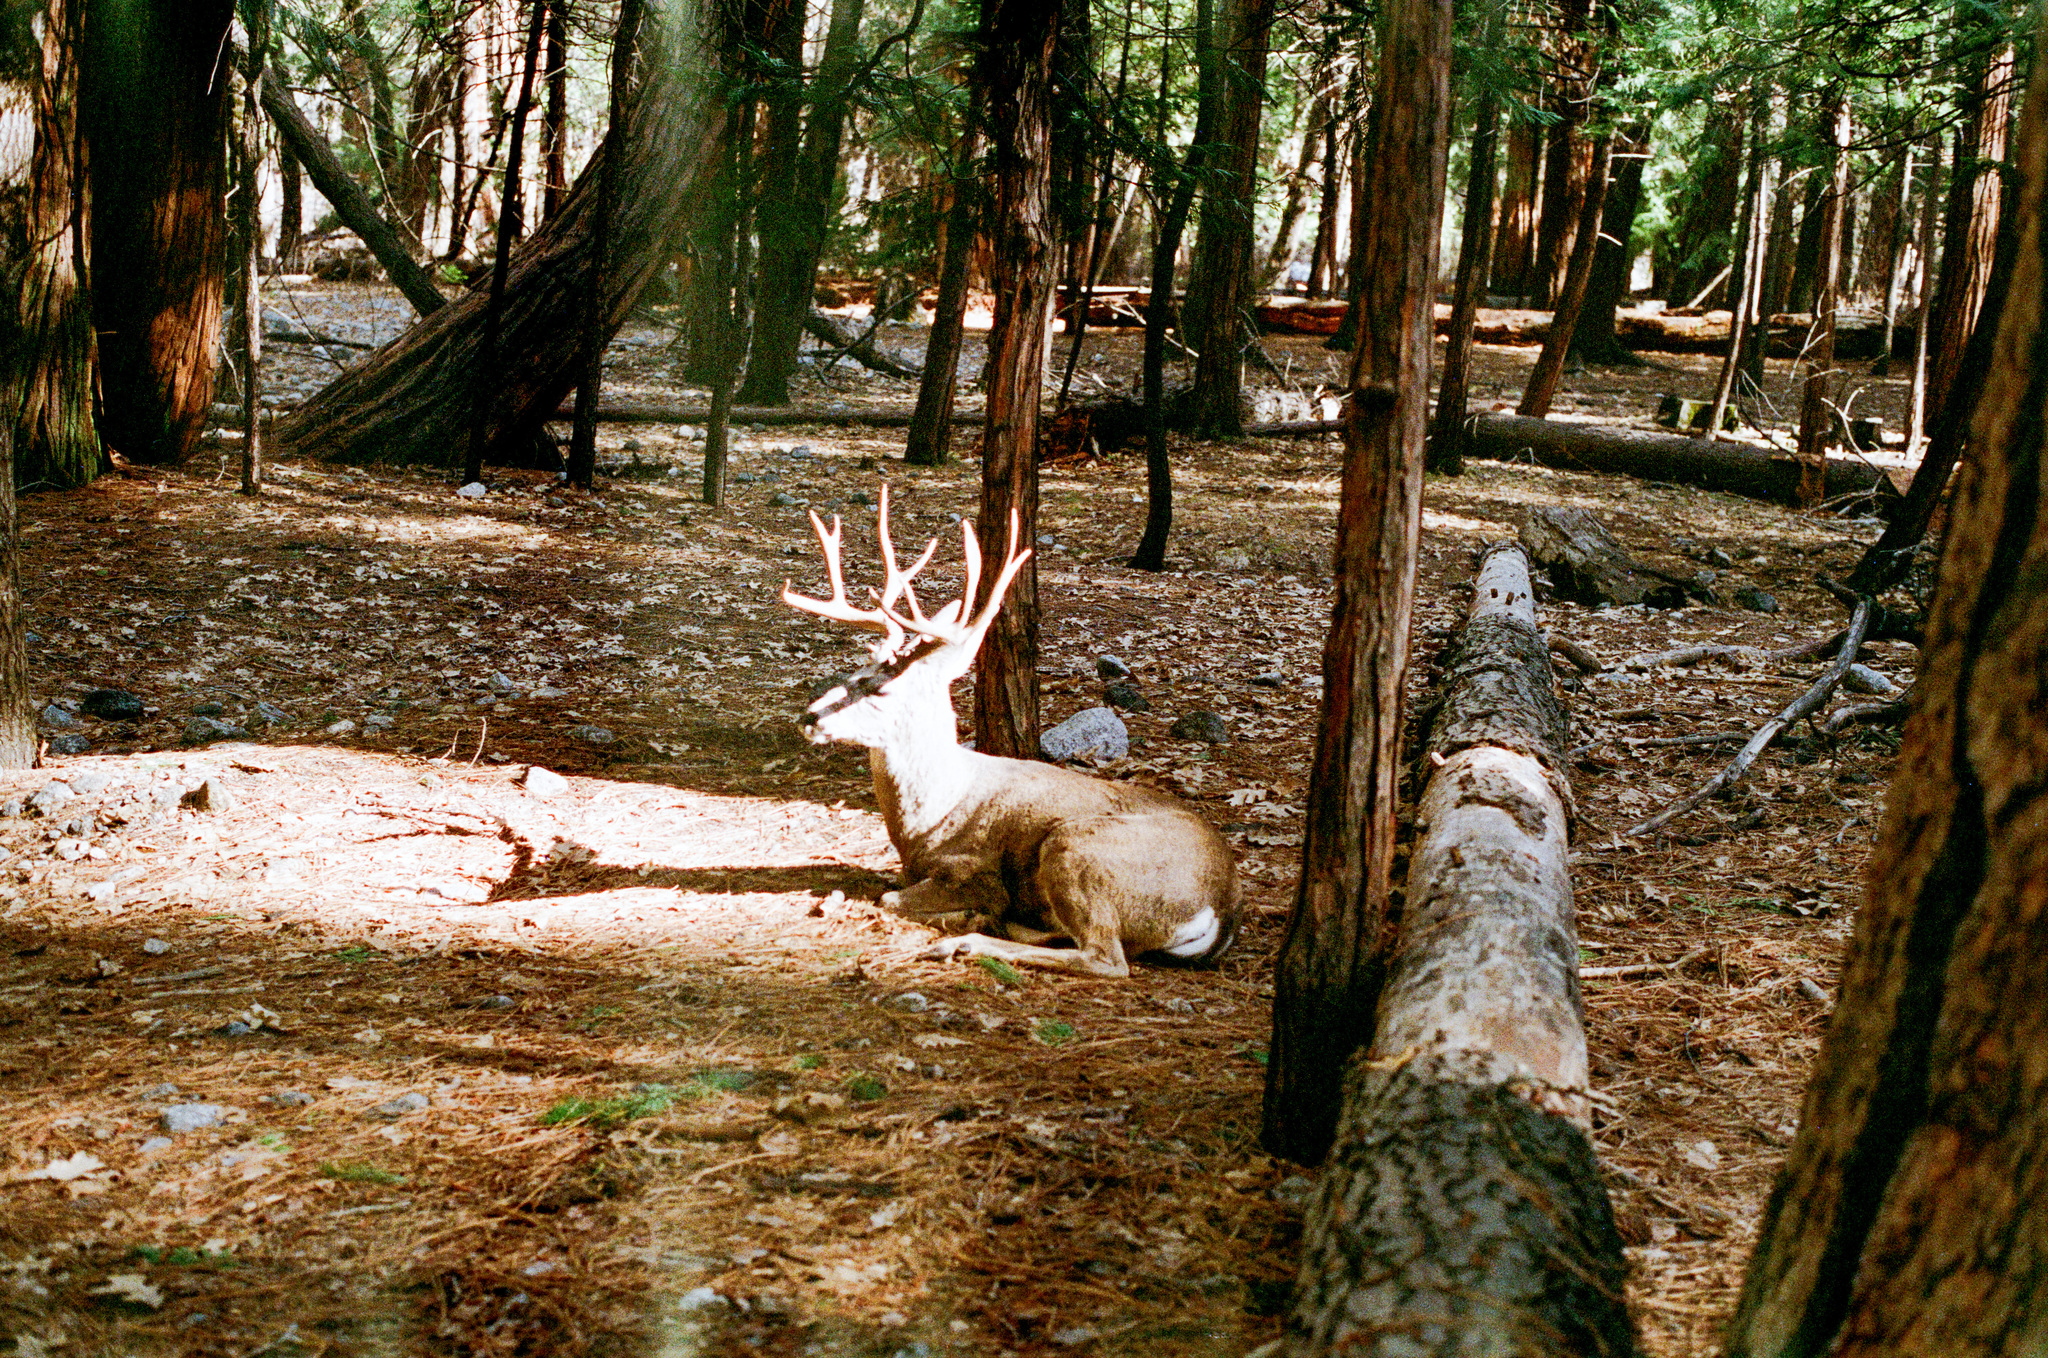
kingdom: Animalia
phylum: Chordata
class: Mammalia
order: Artiodactyla
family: Cervidae
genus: Odocoileus
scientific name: Odocoileus hemionus
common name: Mule deer
